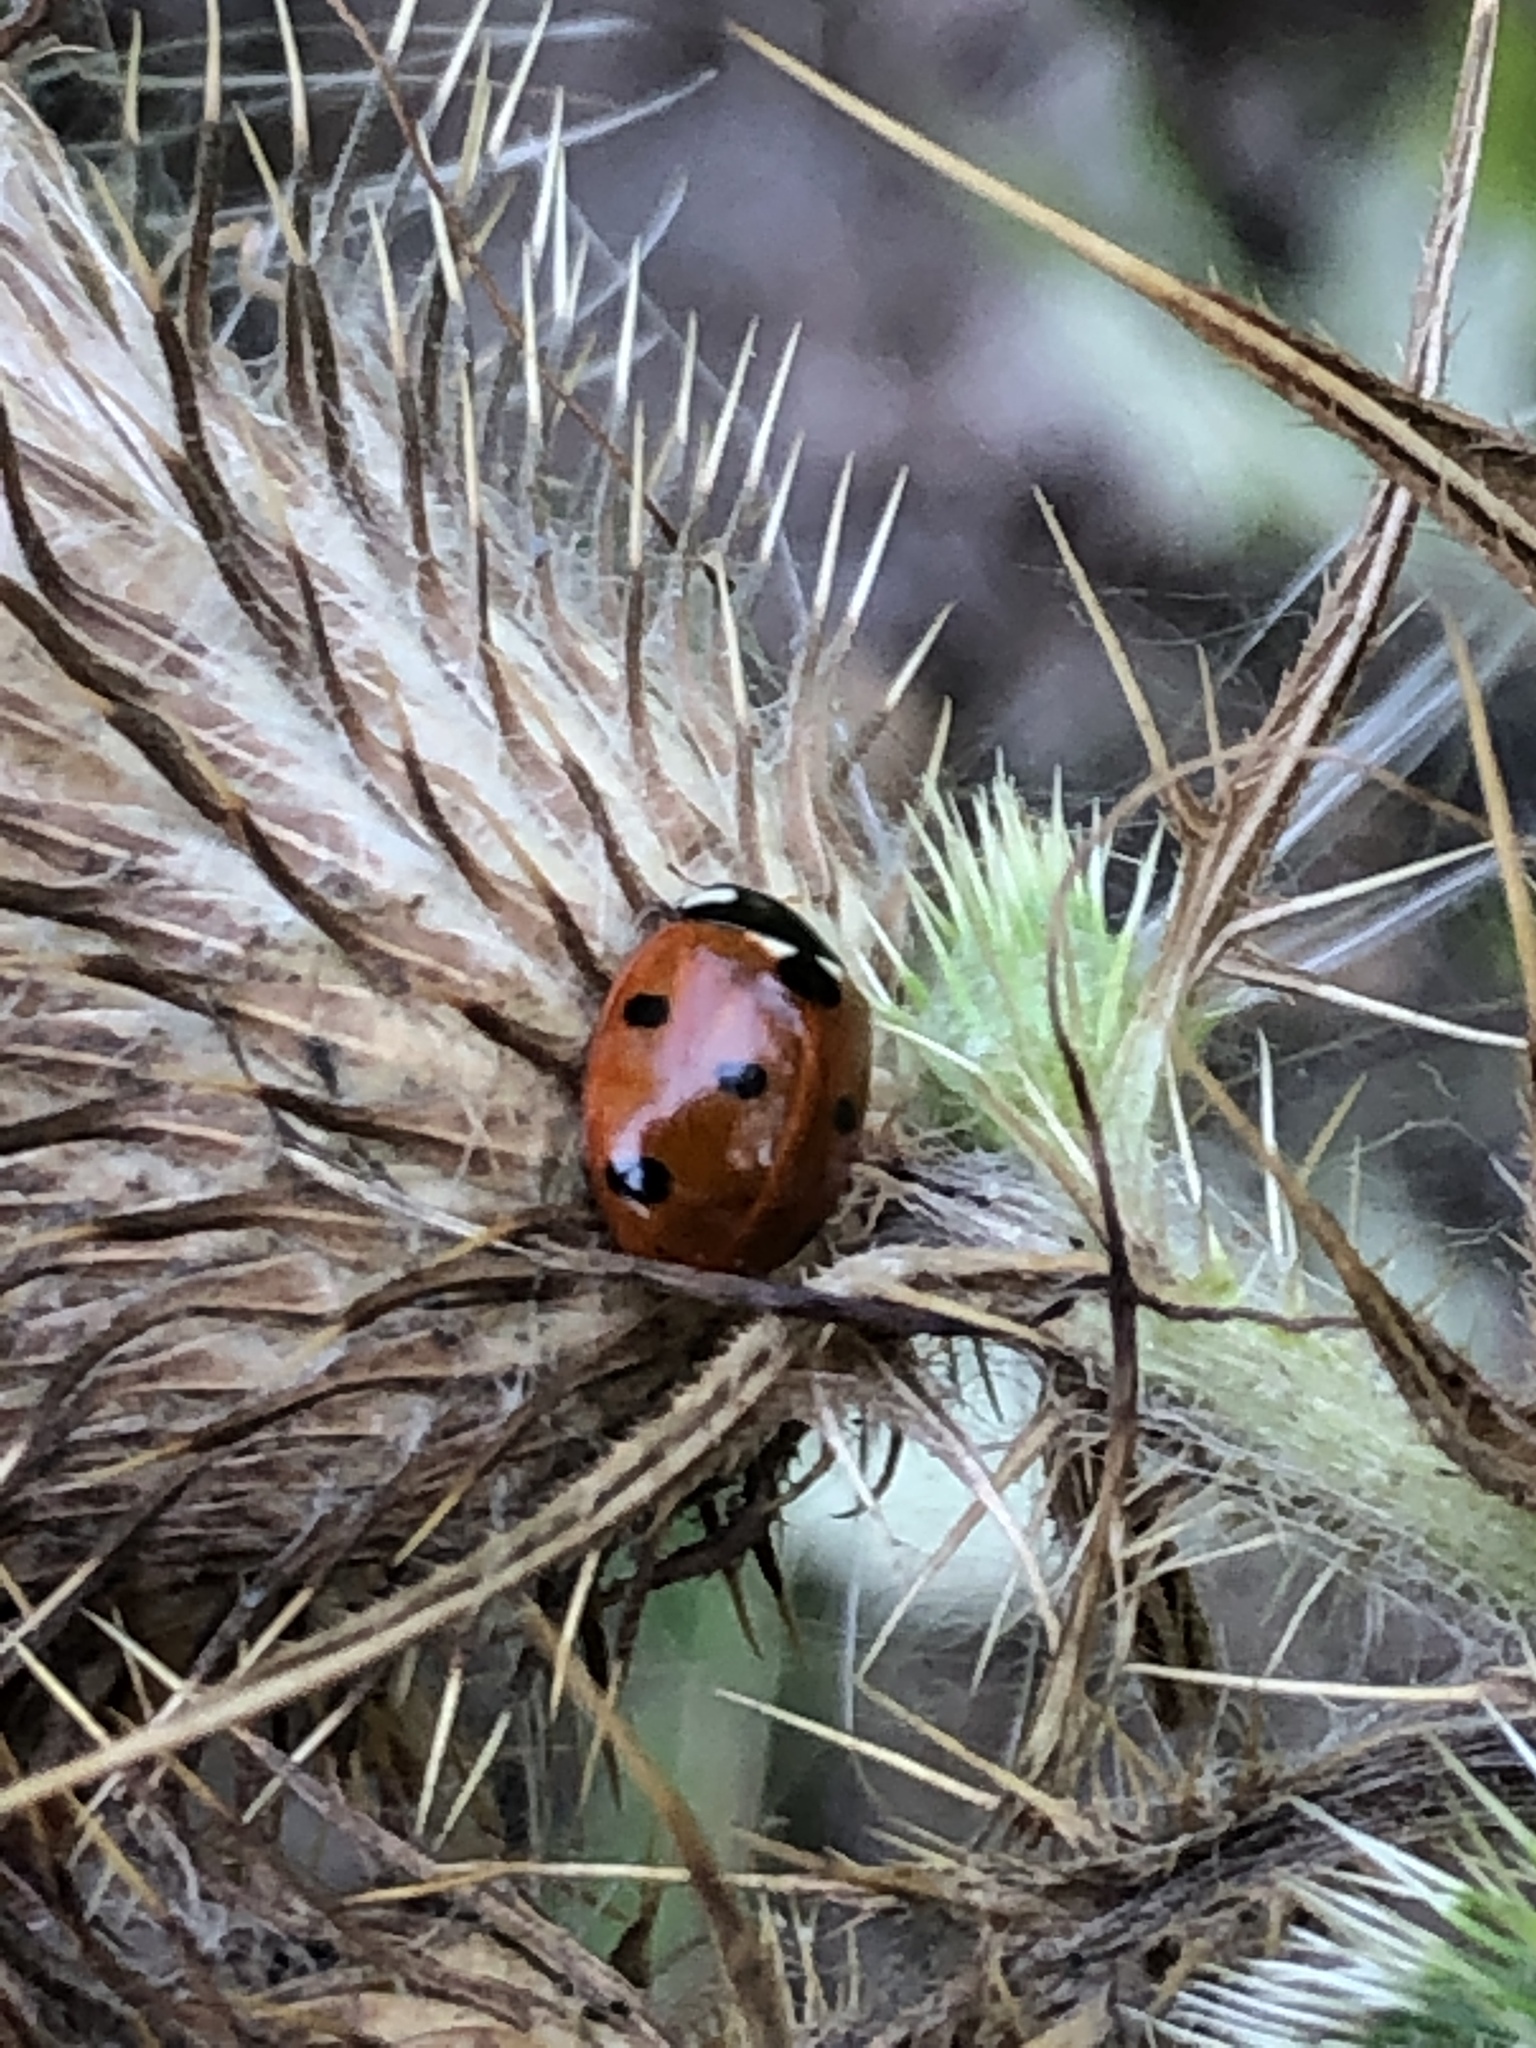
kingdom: Animalia
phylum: Arthropoda
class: Insecta
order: Coleoptera
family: Coccinellidae
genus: Coccinella
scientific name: Coccinella septempunctata
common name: Sevenspotted lady beetle
